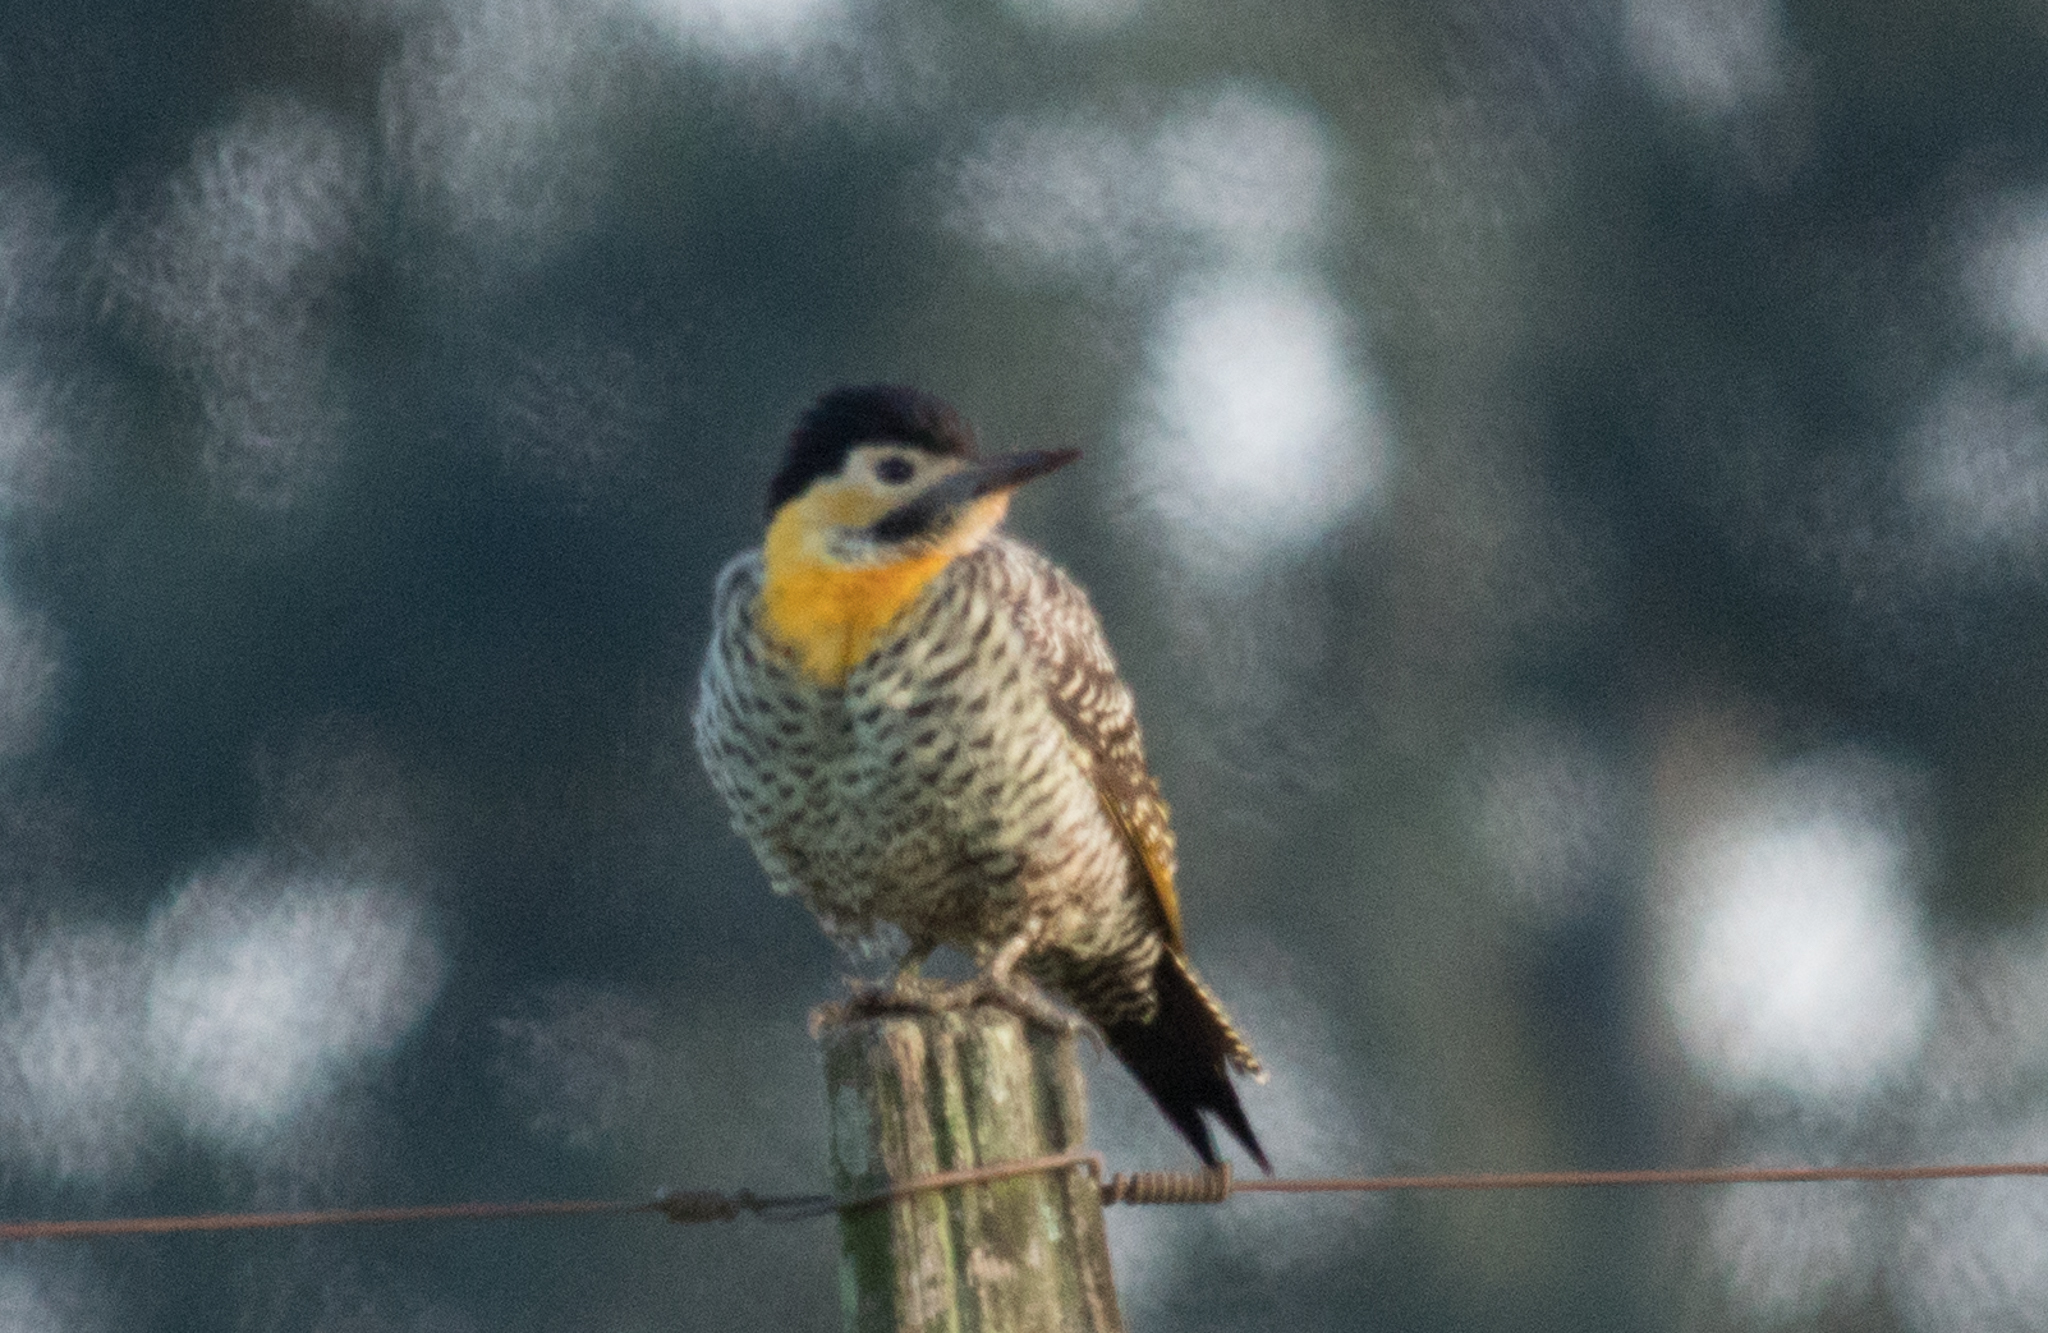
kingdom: Animalia
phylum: Chordata
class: Aves
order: Piciformes
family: Picidae
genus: Colaptes
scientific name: Colaptes campestris
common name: Campo flicker
